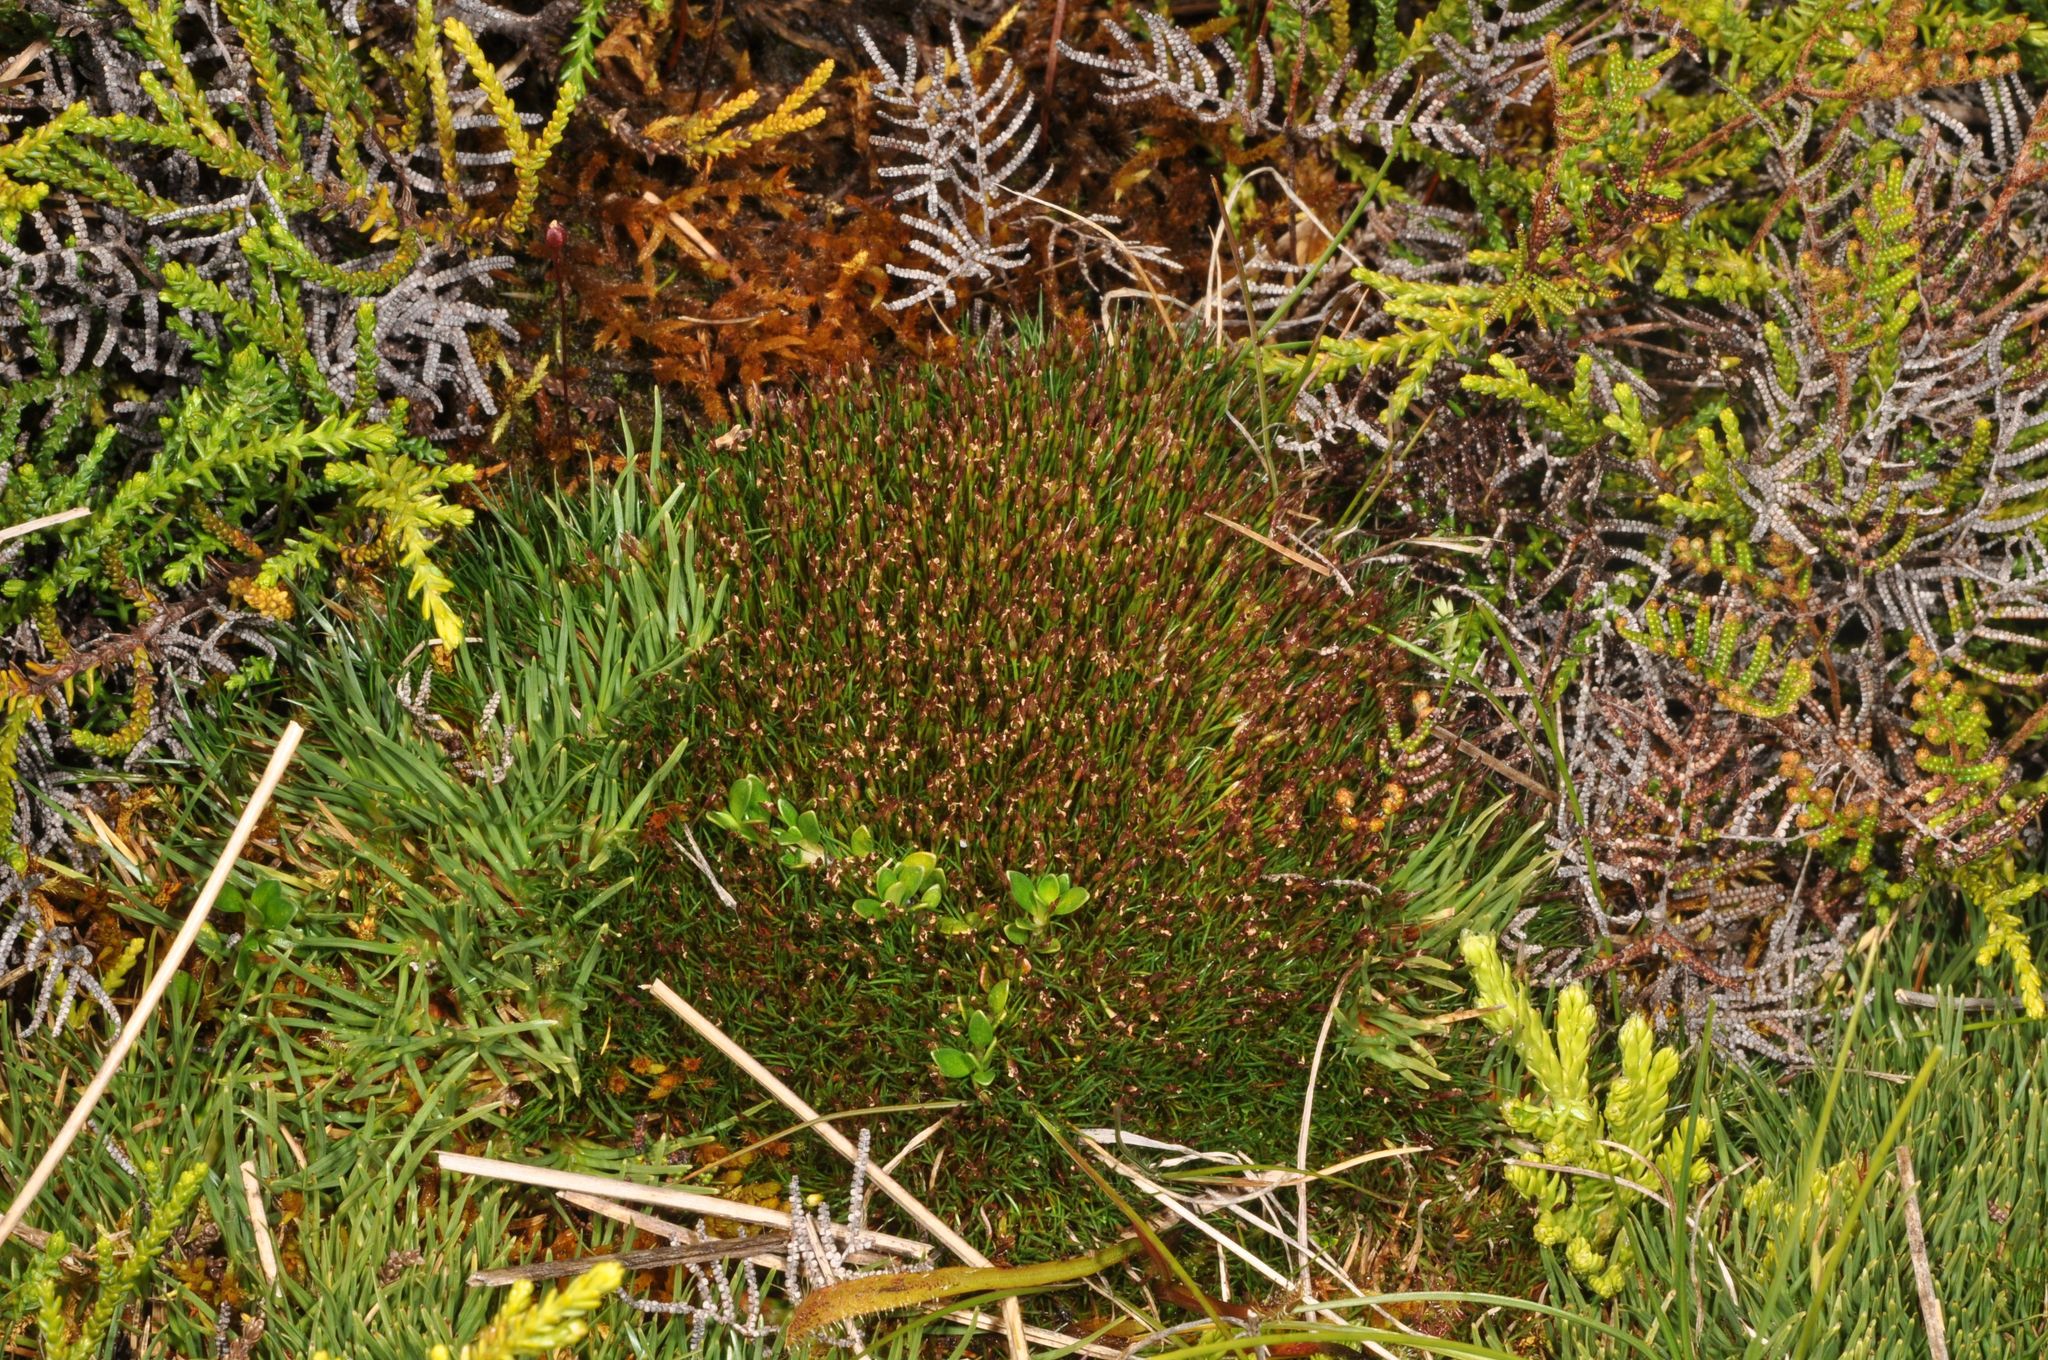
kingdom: Plantae
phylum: Tracheophyta
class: Liliopsida
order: Poales
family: Restionaceae
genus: Gaimardia
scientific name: Gaimardia setacea
